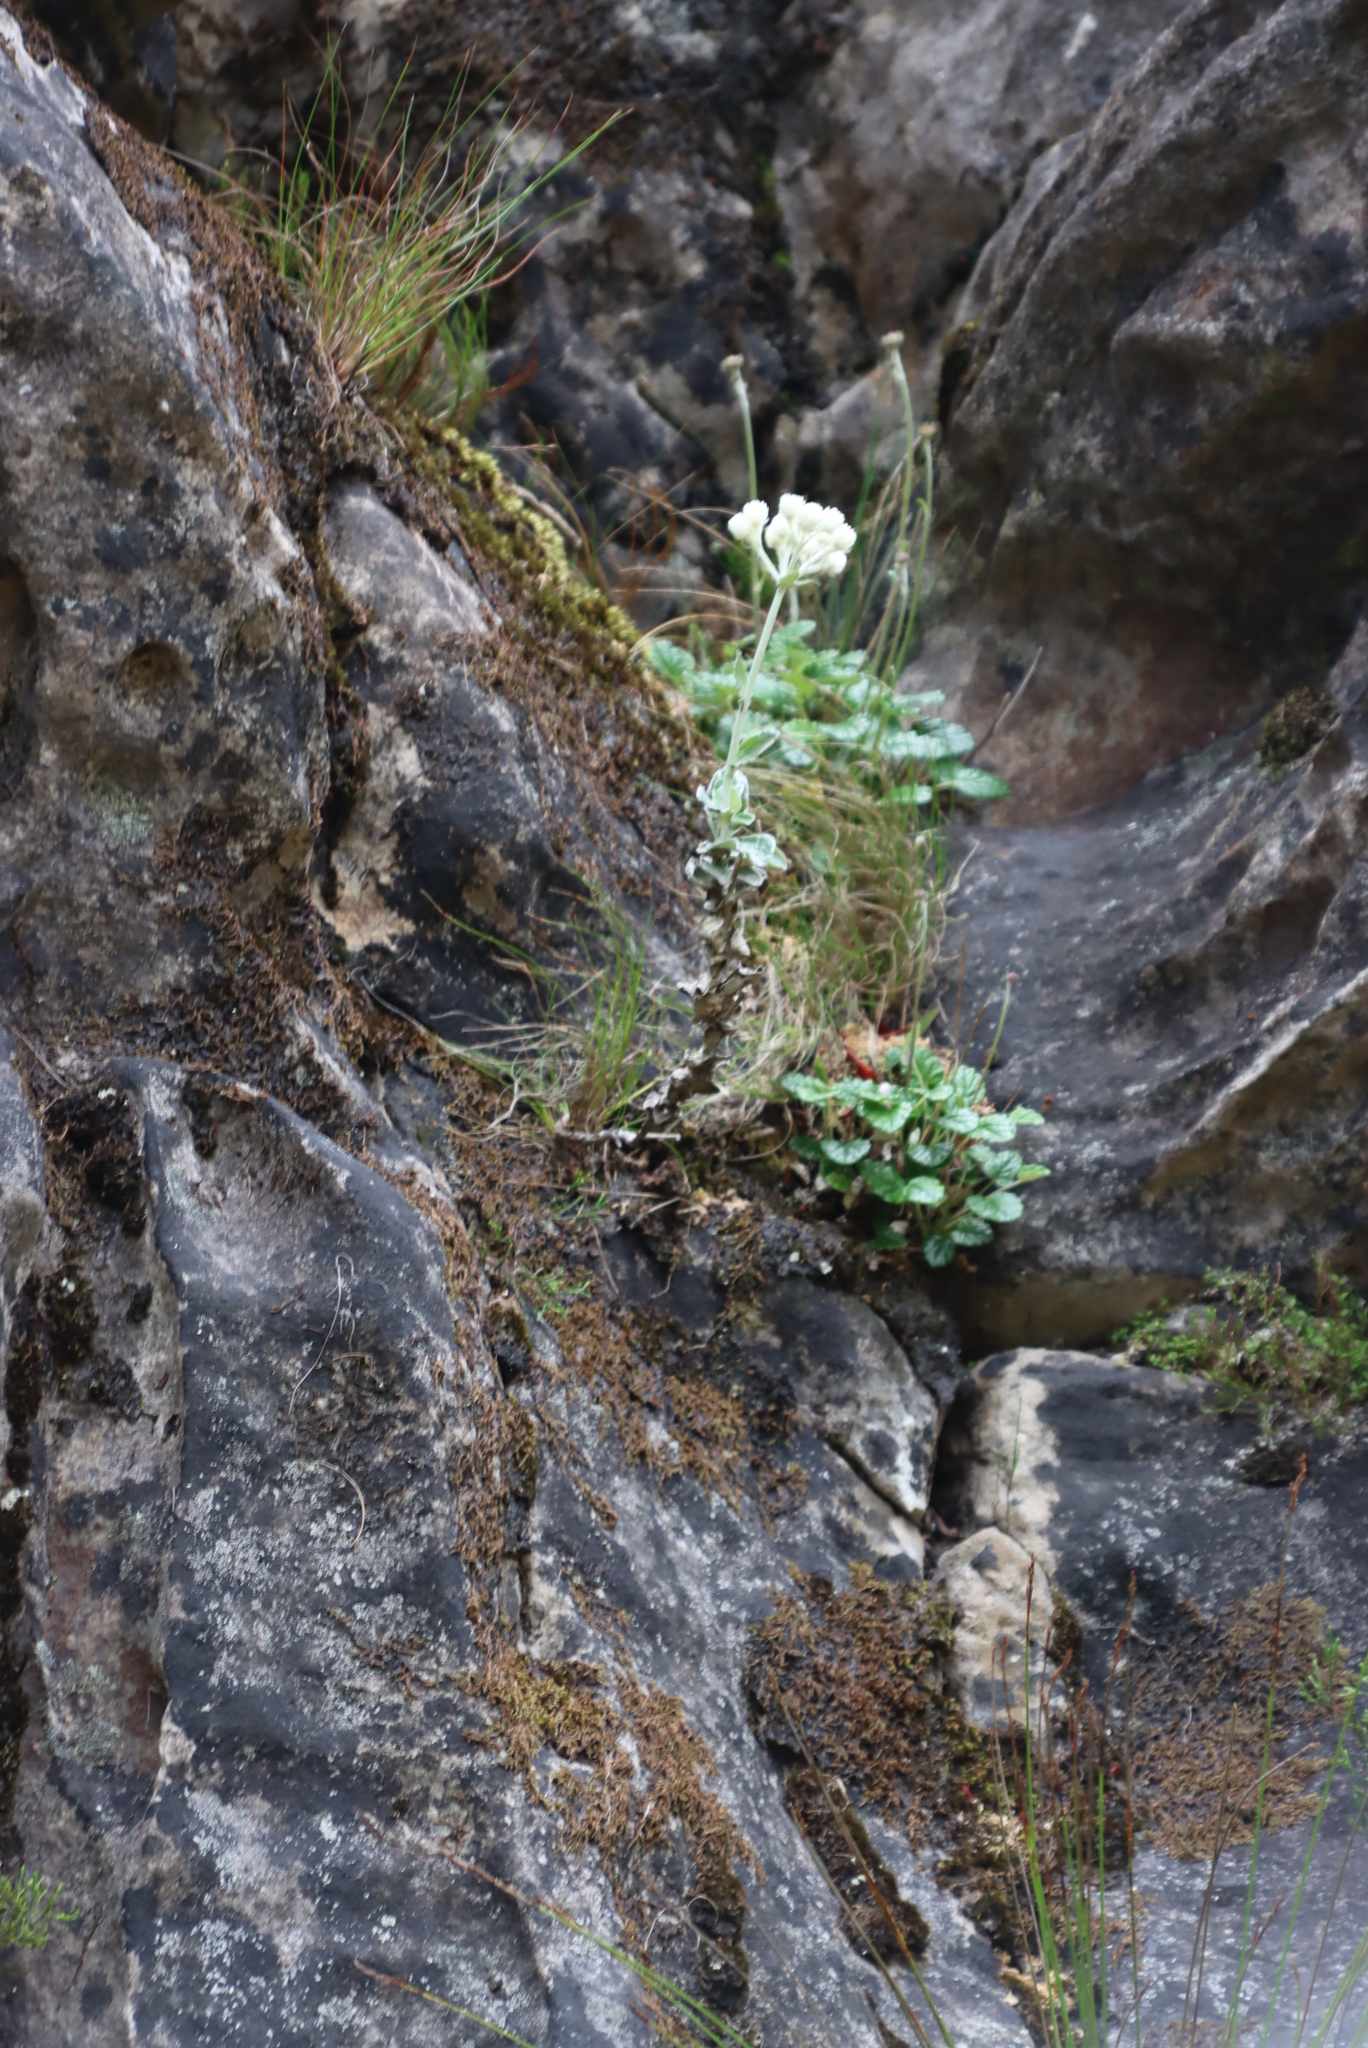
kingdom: Plantae
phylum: Tracheophyta
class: Magnoliopsida
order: Asterales
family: Asteraceae
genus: Helichrysum
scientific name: Helichrysum fruticans
